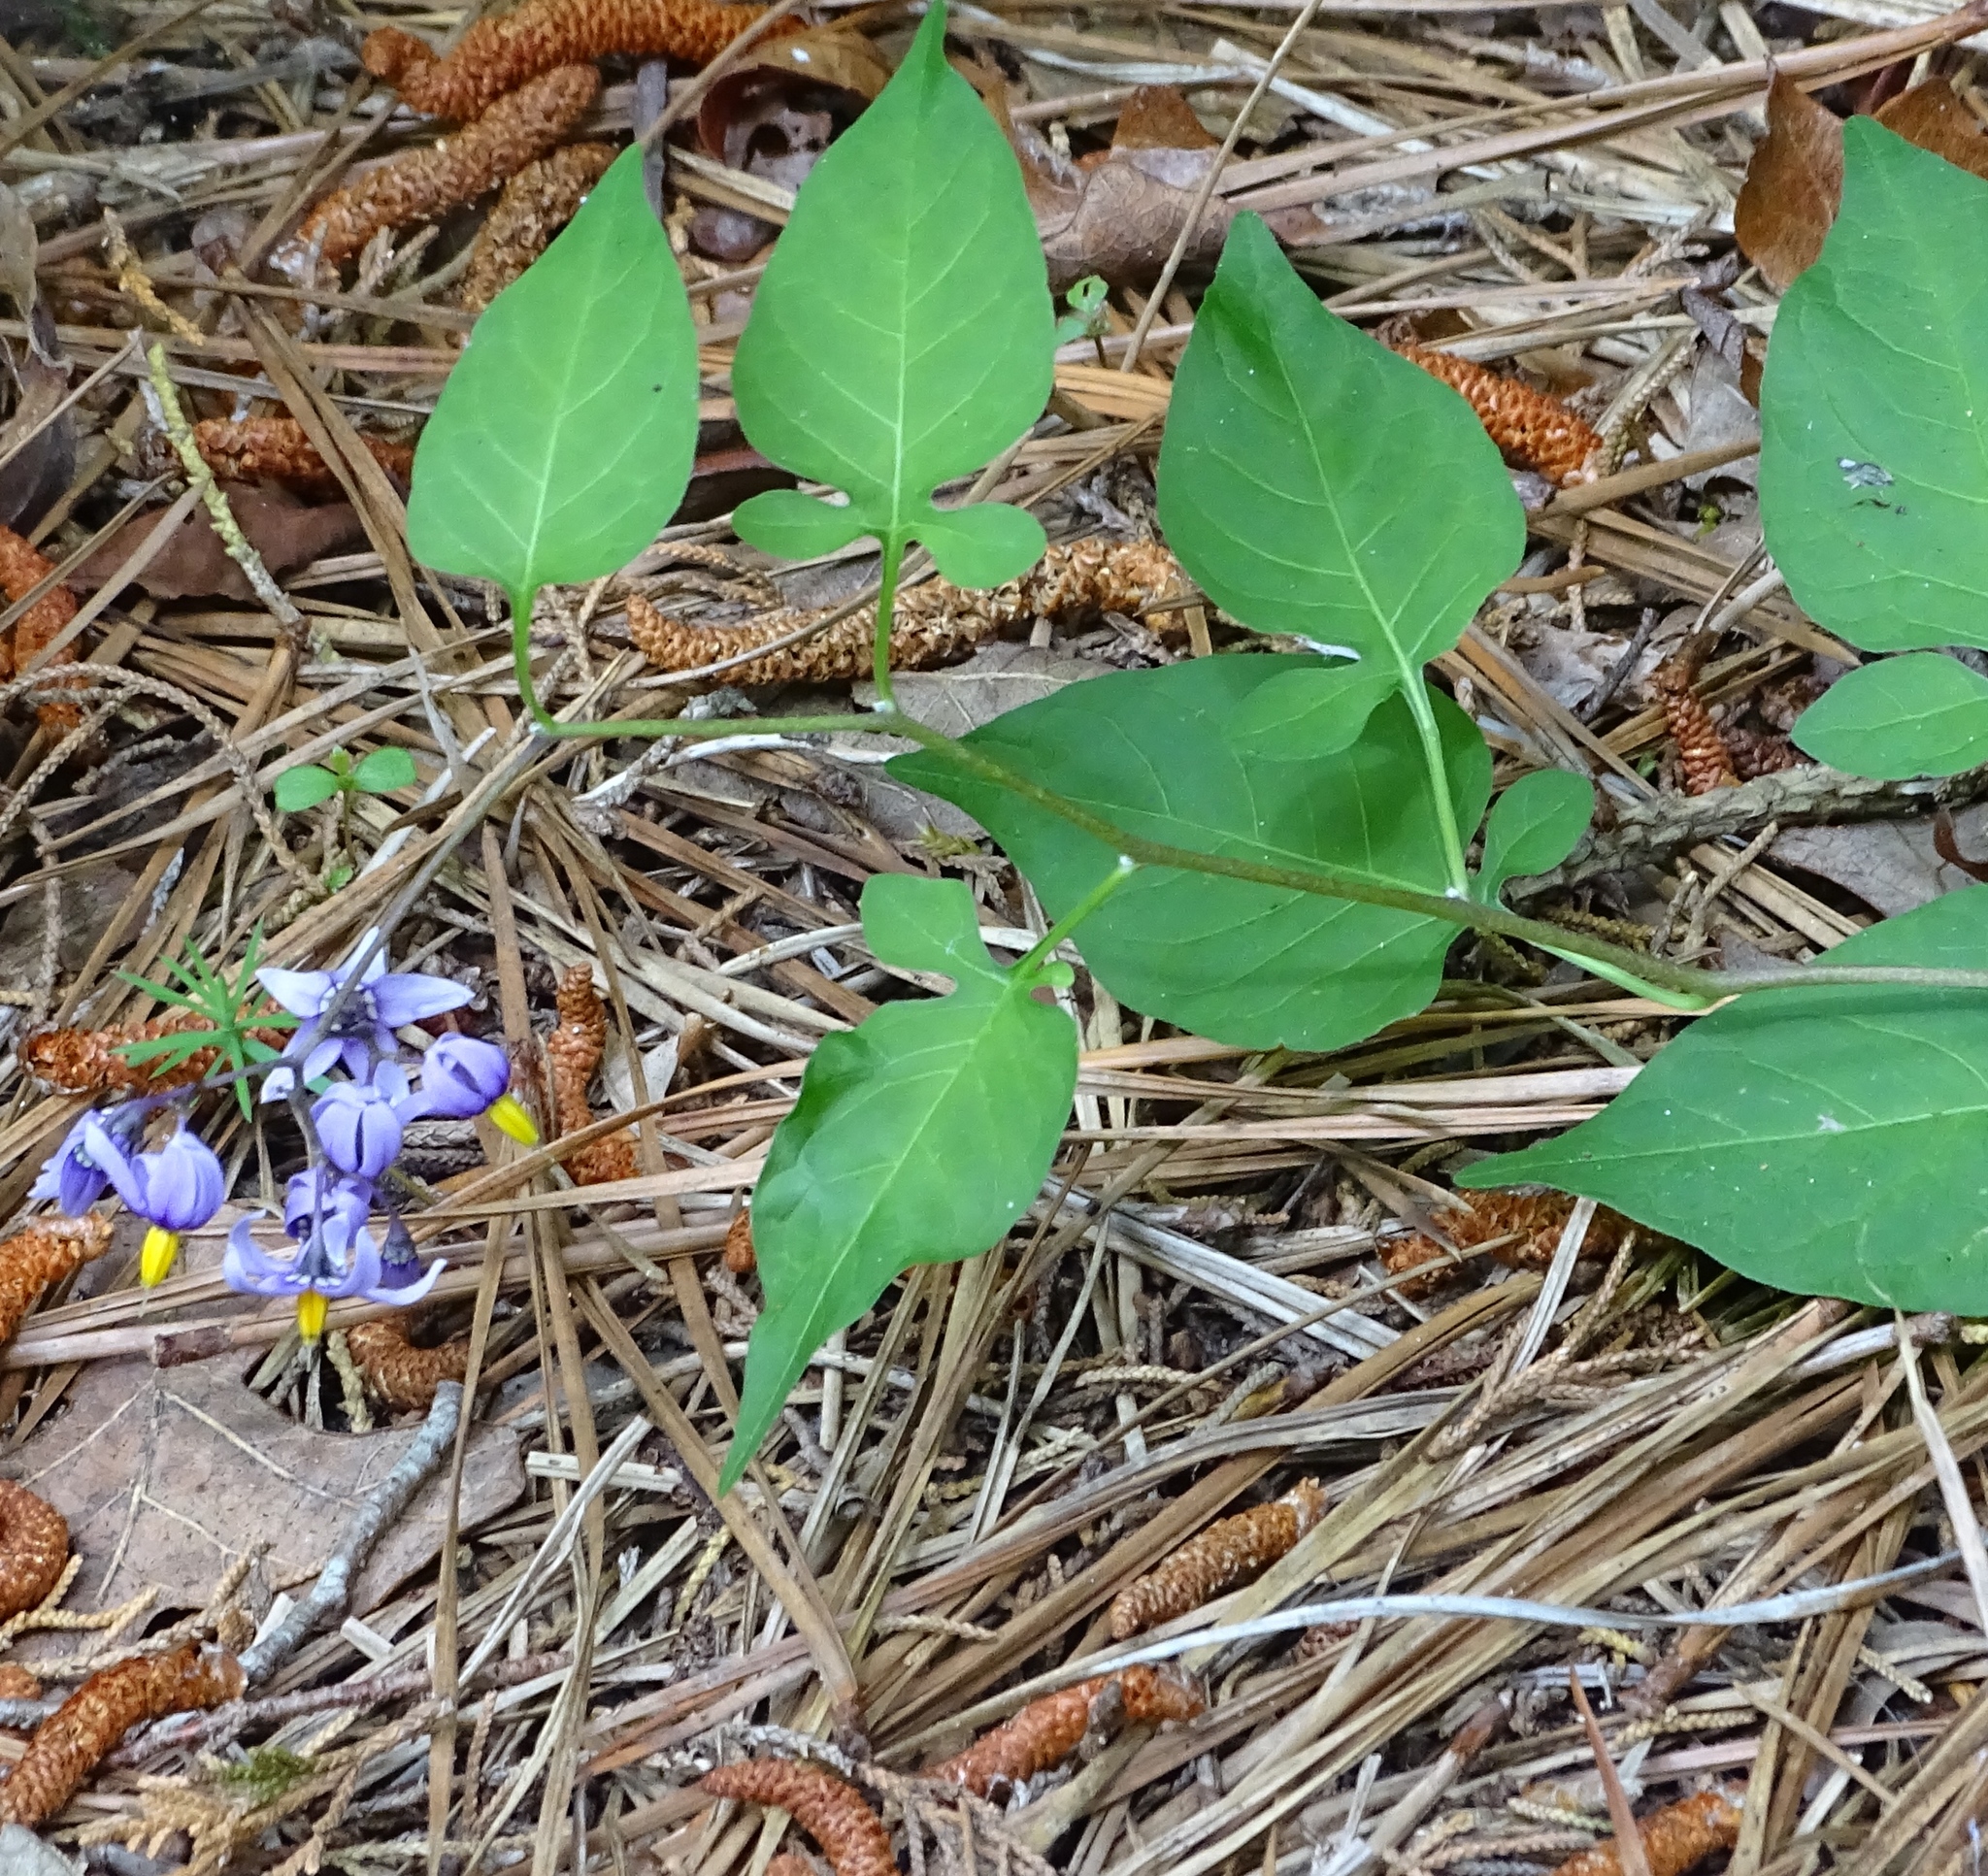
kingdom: Plantae
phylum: Tracheophyta
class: Magnoliopsida
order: Solanales
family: Solanaceae
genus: Solanum
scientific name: Solanum dulcamara
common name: Climbing nightshade
